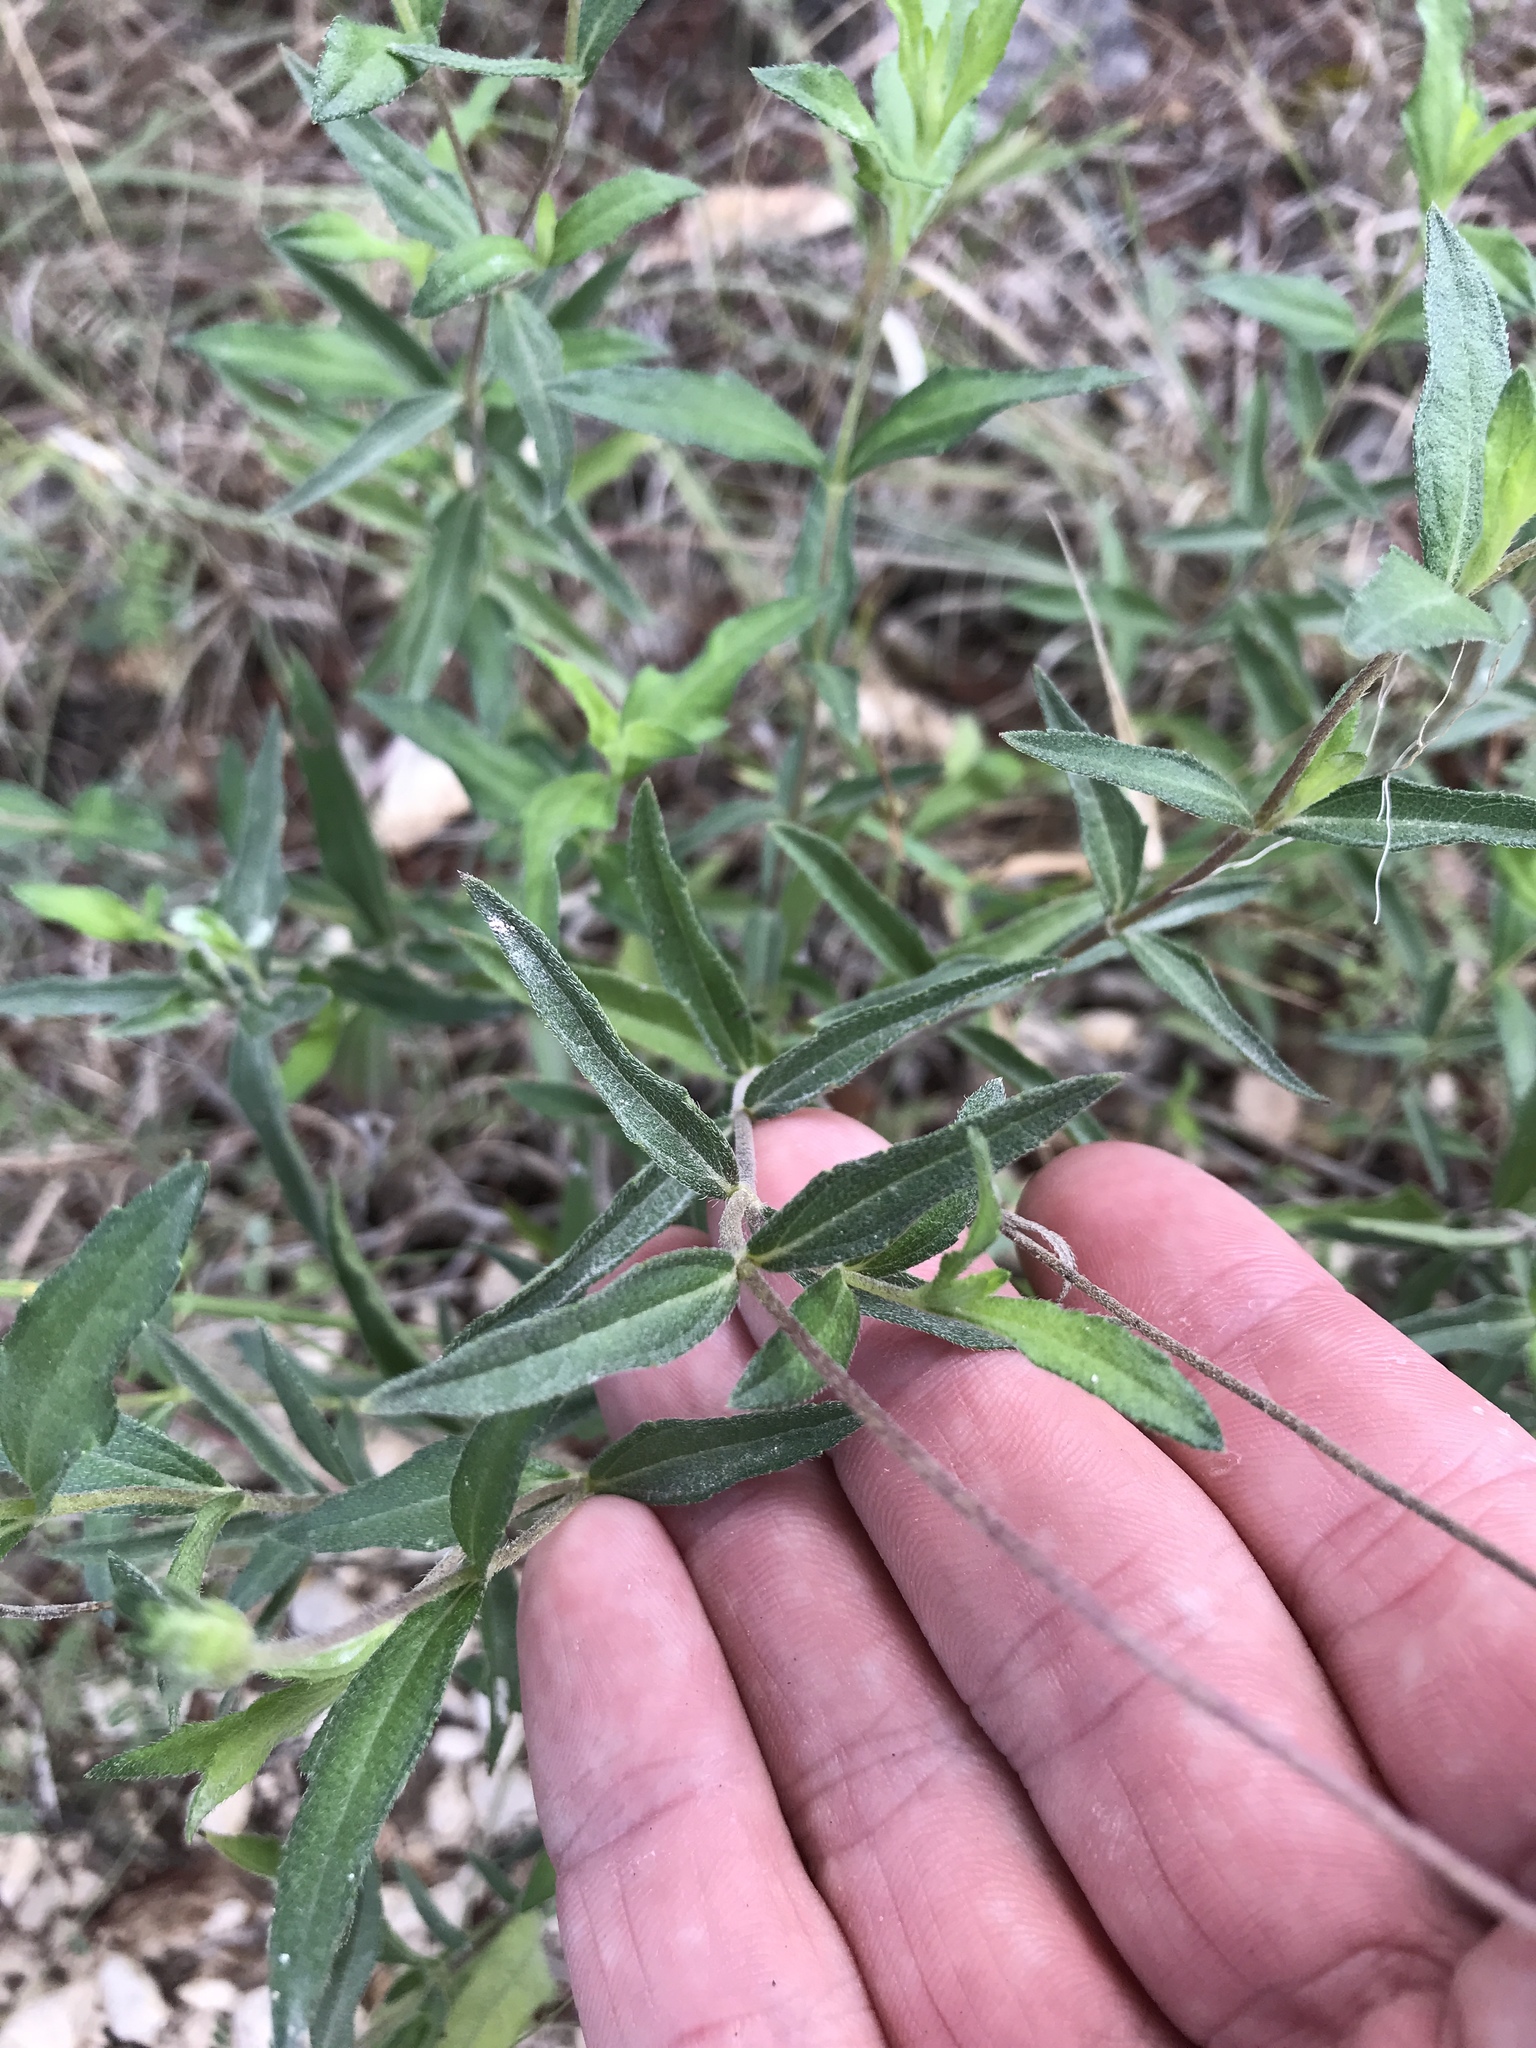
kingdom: Plantae
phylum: Tracheophyta
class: Magnoliopsida
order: Asterales
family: Asteraceae
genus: Wedelia
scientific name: Wedelia acapulcensis
